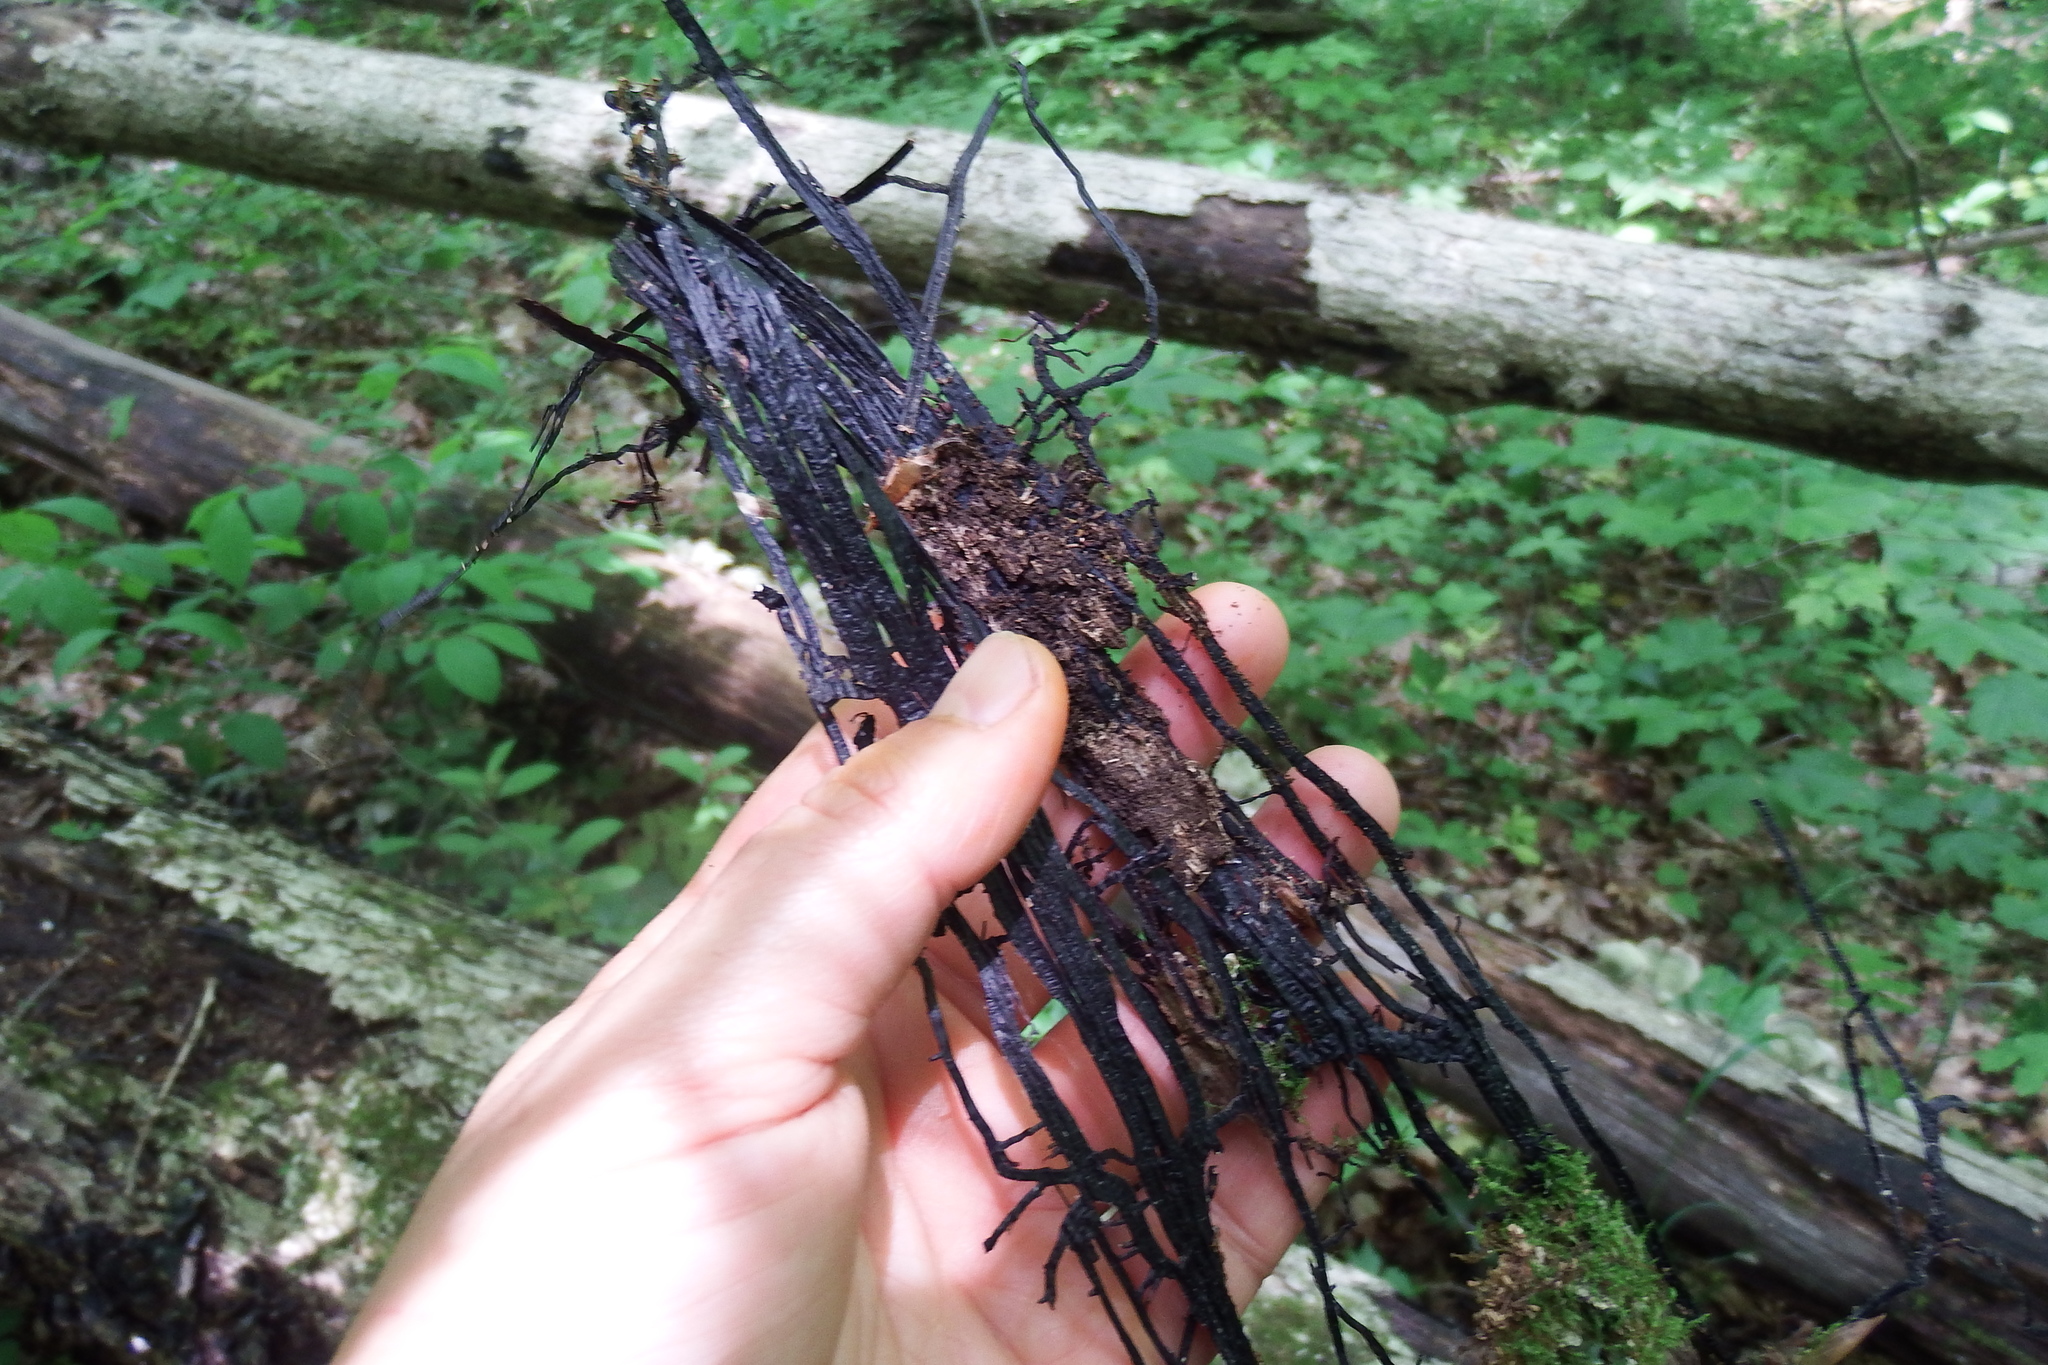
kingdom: Fungi
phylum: Basidiomycota
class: Agaricomycetes
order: Agaricales
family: Physalacriaceae
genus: Armillaria
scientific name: Armillaria mellea
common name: Honey fungus
